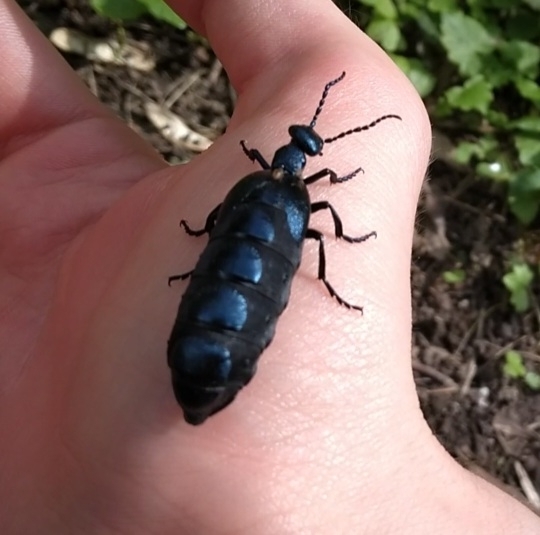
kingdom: Animalia
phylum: Arthropoda
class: Insecta
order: Coleoptera
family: Meloidae
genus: Meloe
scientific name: Meloe violaceus
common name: Violet oil-beetle
